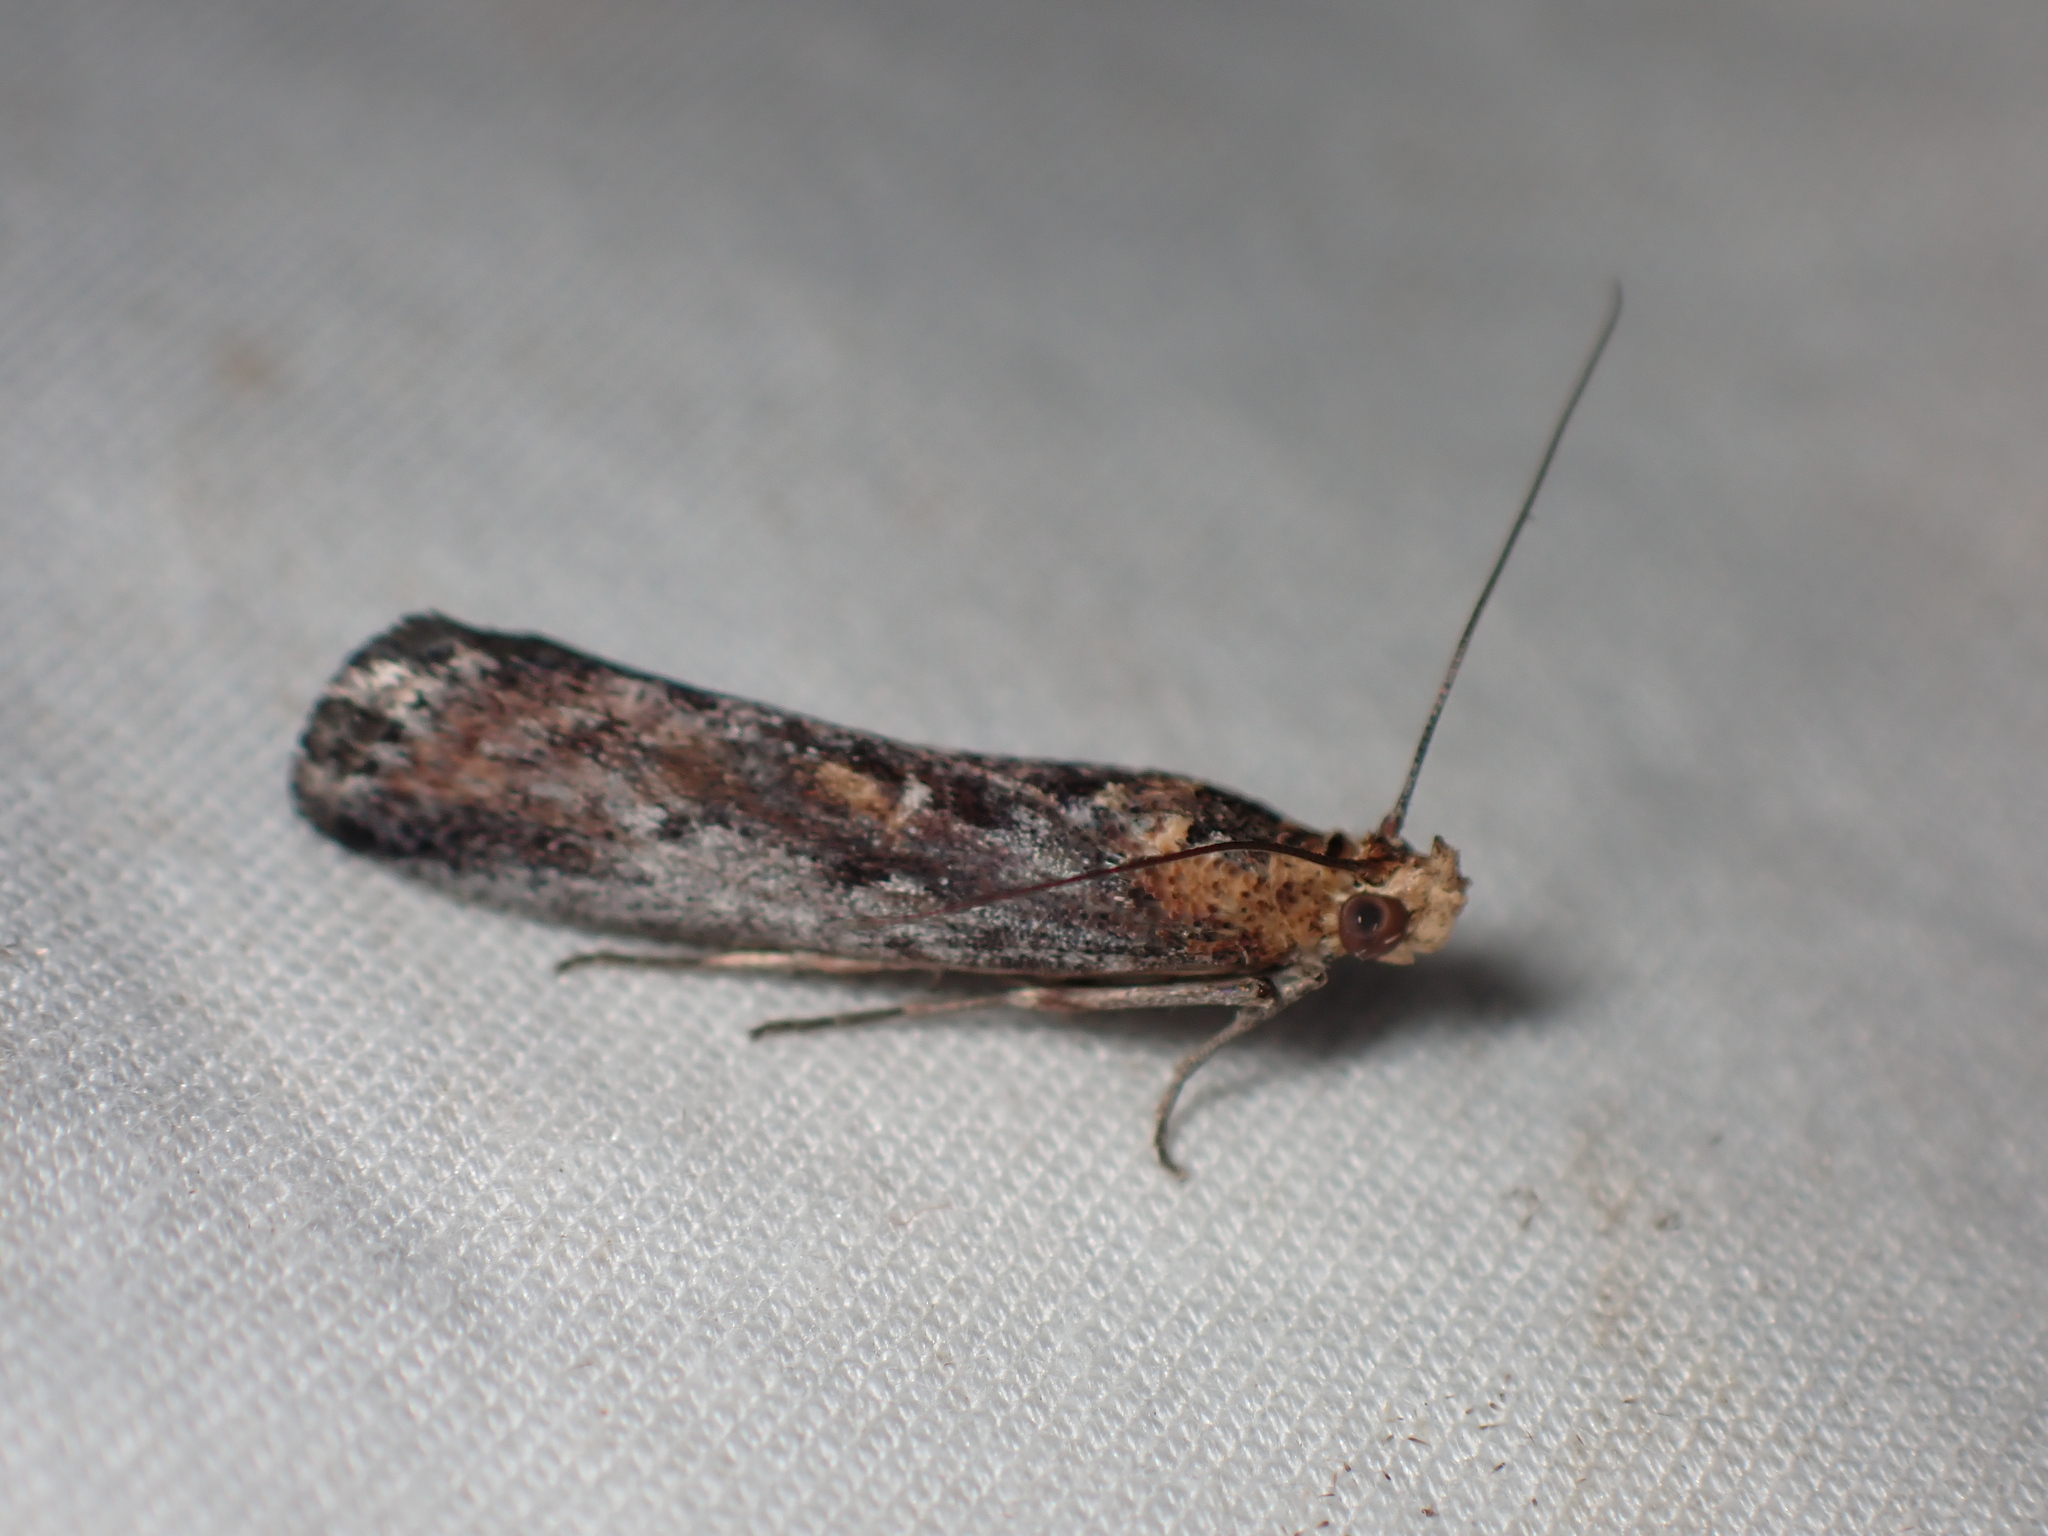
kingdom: Animalia
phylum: Arthropoda
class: Insecta
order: Lepidoptera
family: Pyralidae
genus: Morosaphycita
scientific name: Morosaphycita oculiferella
